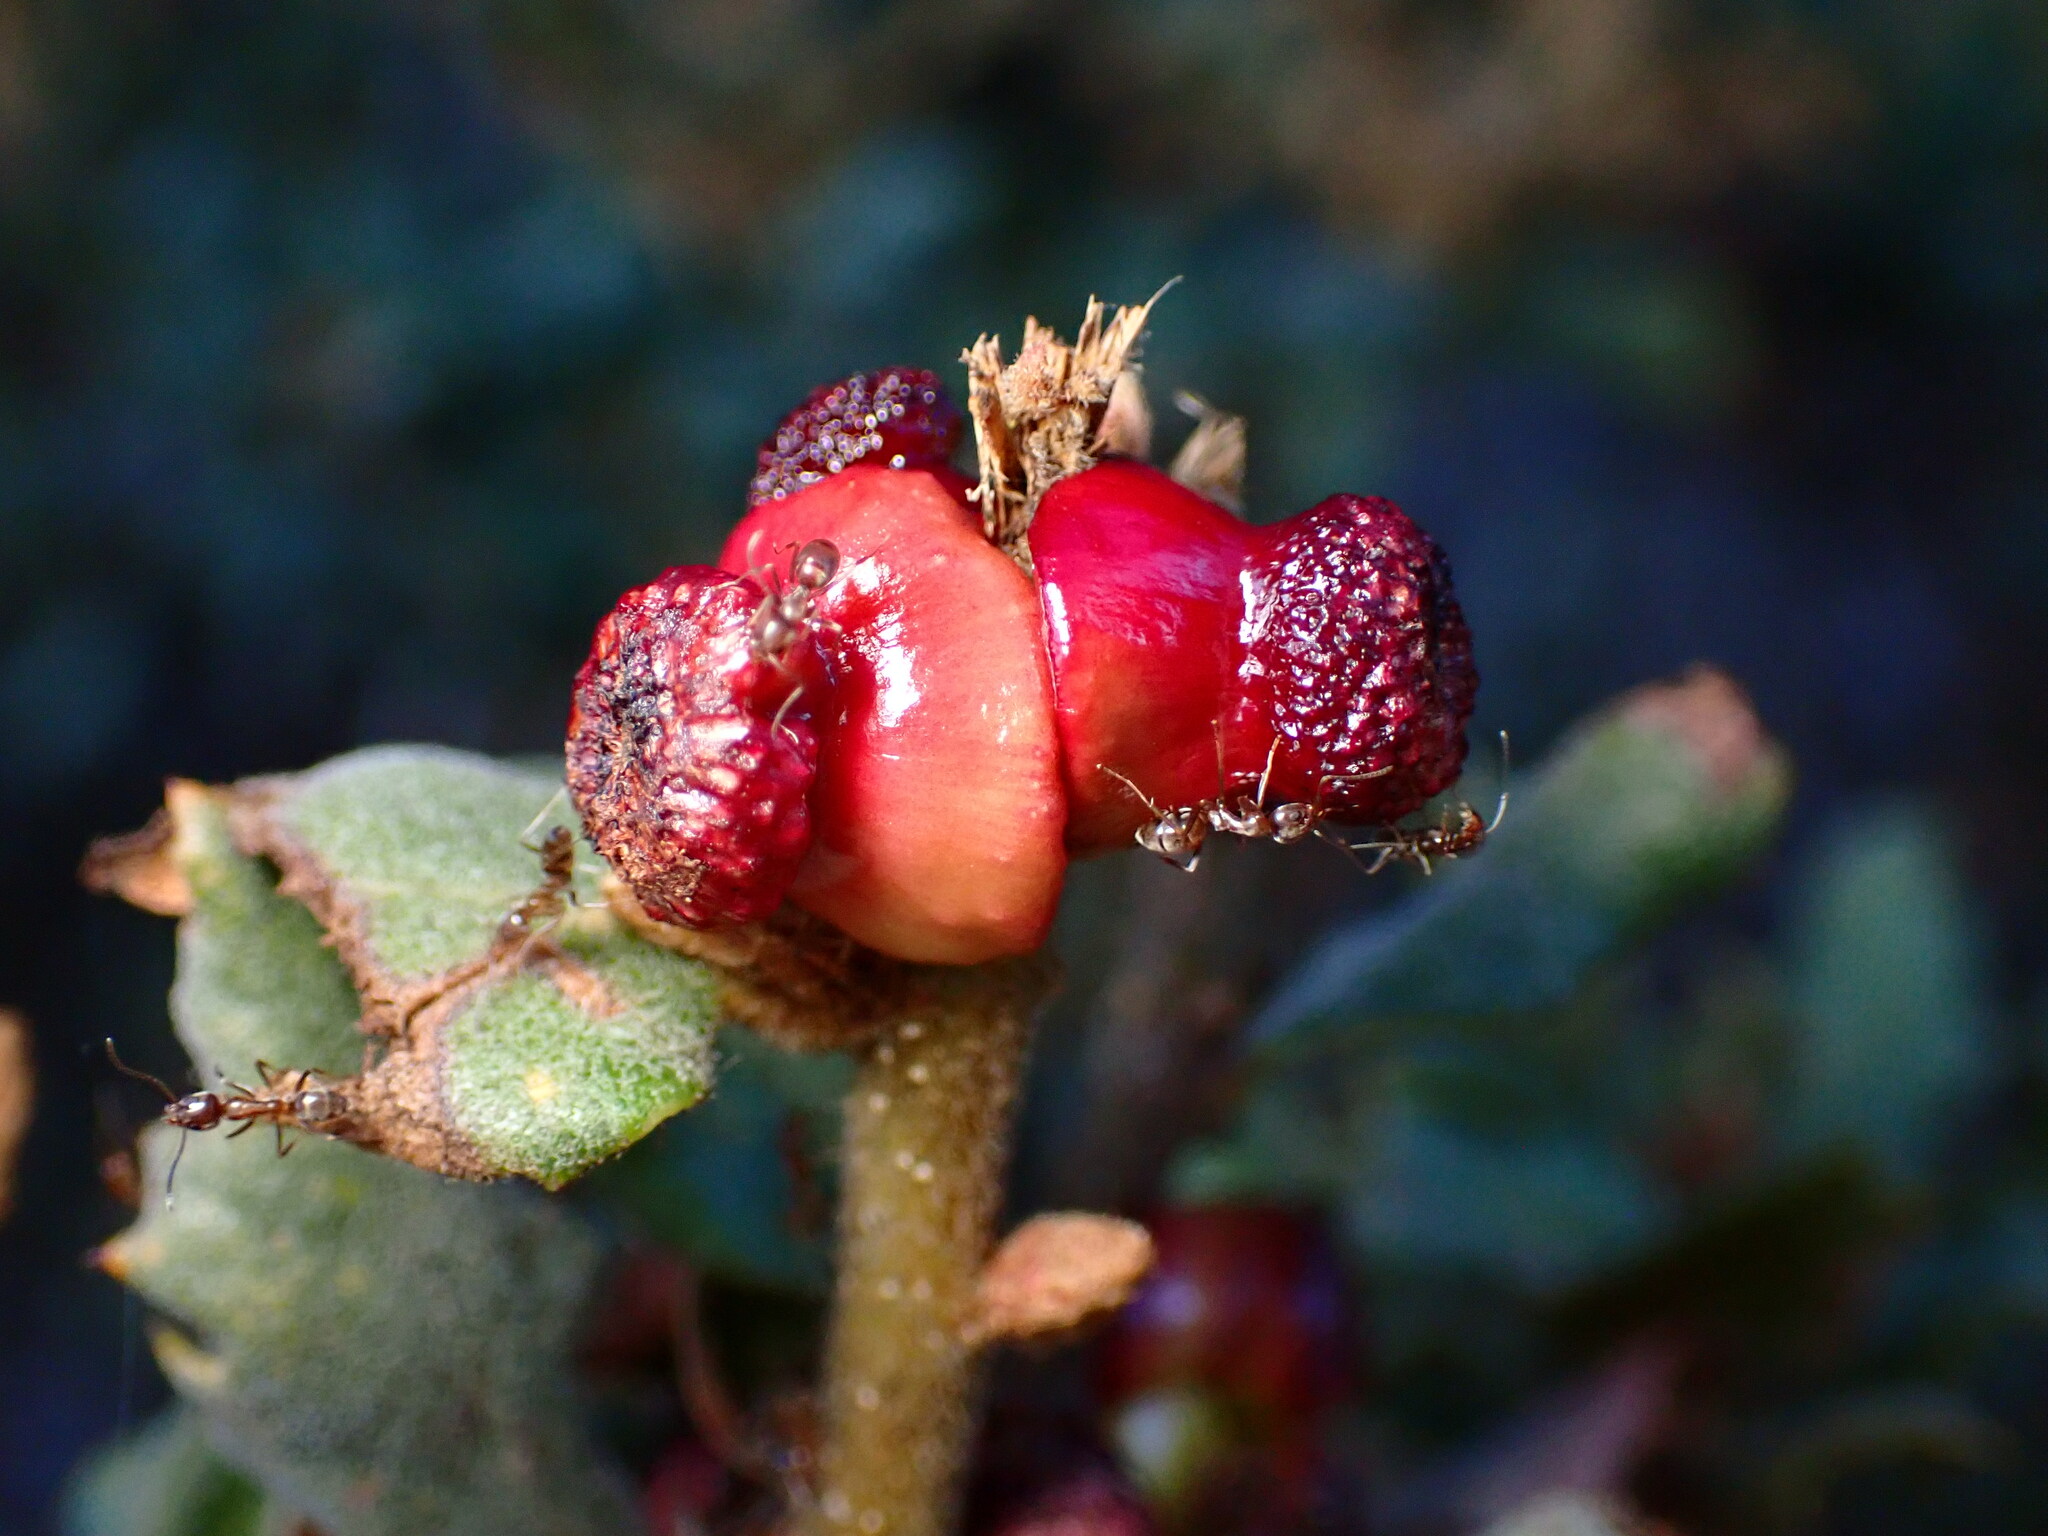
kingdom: Animalia
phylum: Arthropoda
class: Insecta
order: Hymenoptera
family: Cynipidae
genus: Disholcaspis
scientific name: Disholcaspis prehensa
